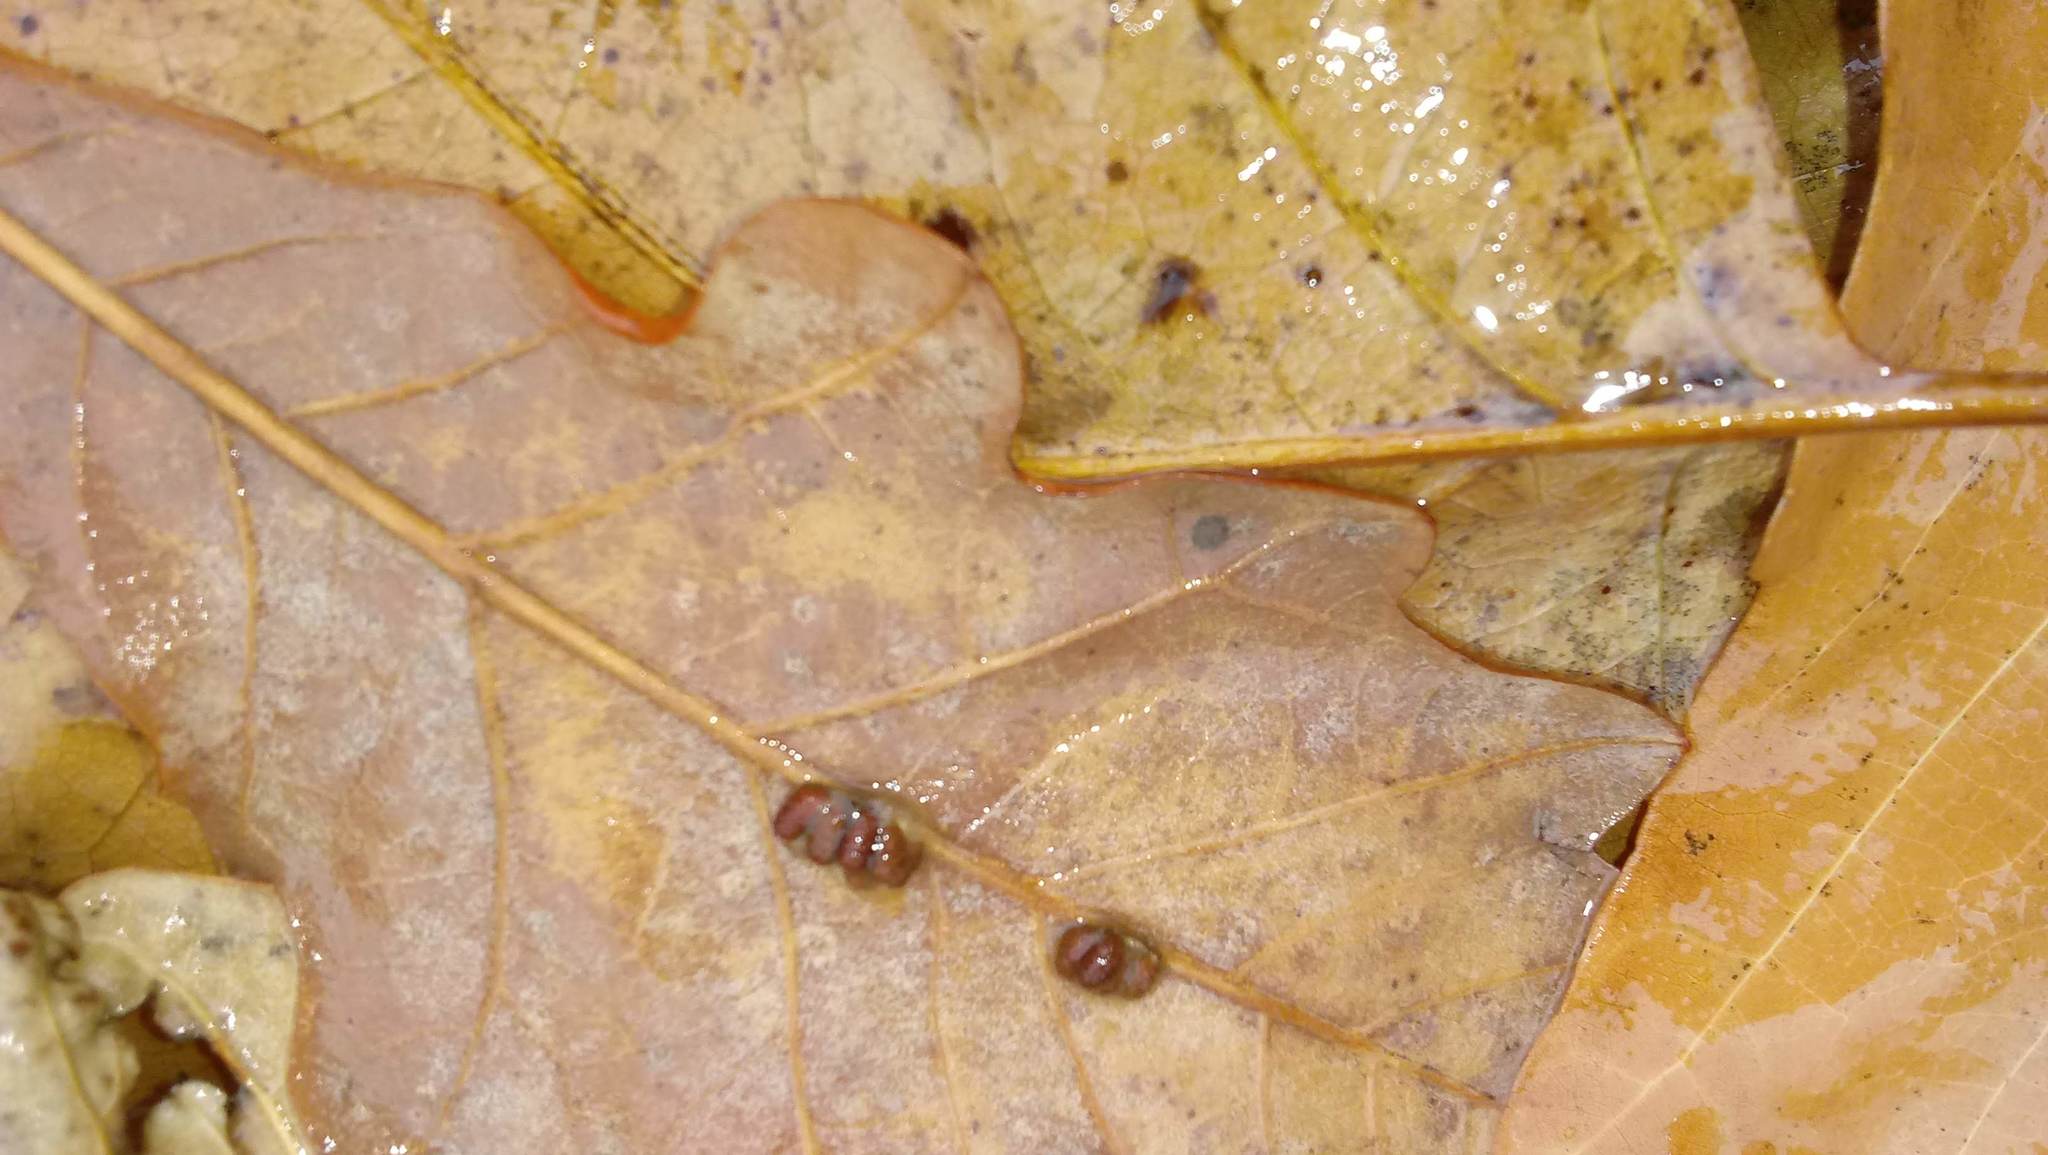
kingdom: Animalia
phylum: Arthropoda
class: Insecta
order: Hymenoptera
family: Cynipidae
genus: Andricus
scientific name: Andricus Druon ignotum
